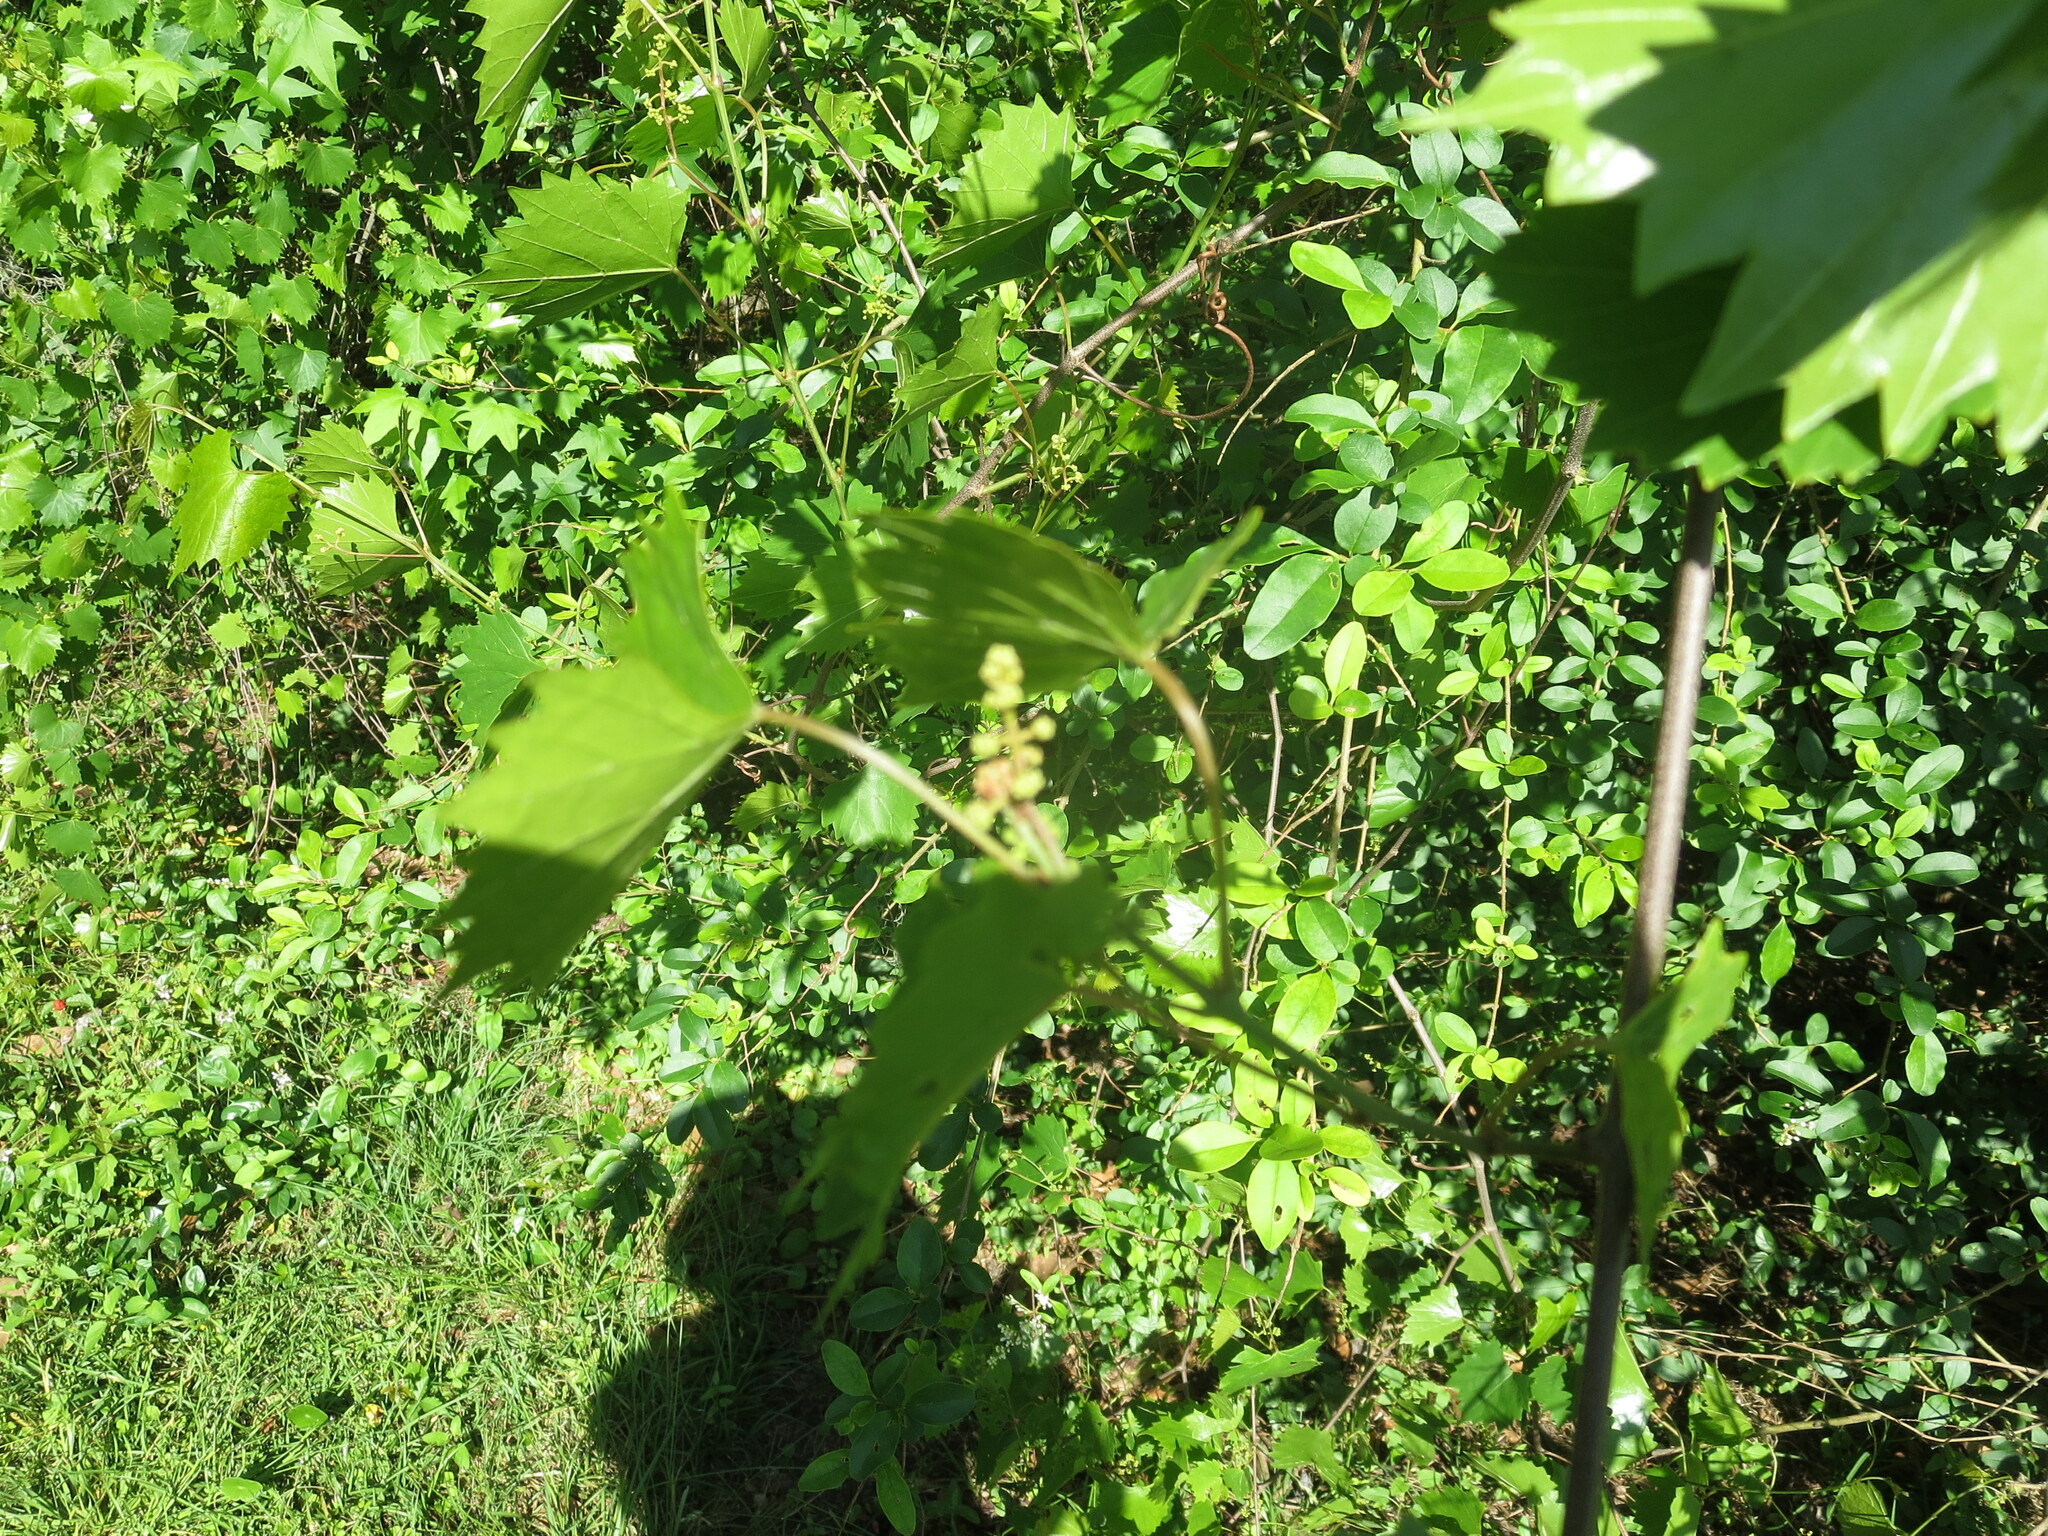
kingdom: Plantae
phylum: Tracheophyta
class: Magnoliopsida
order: Vitales
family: Vitaceae
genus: Vitis
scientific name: Vitis rotundifolia
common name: Muscadine grape
